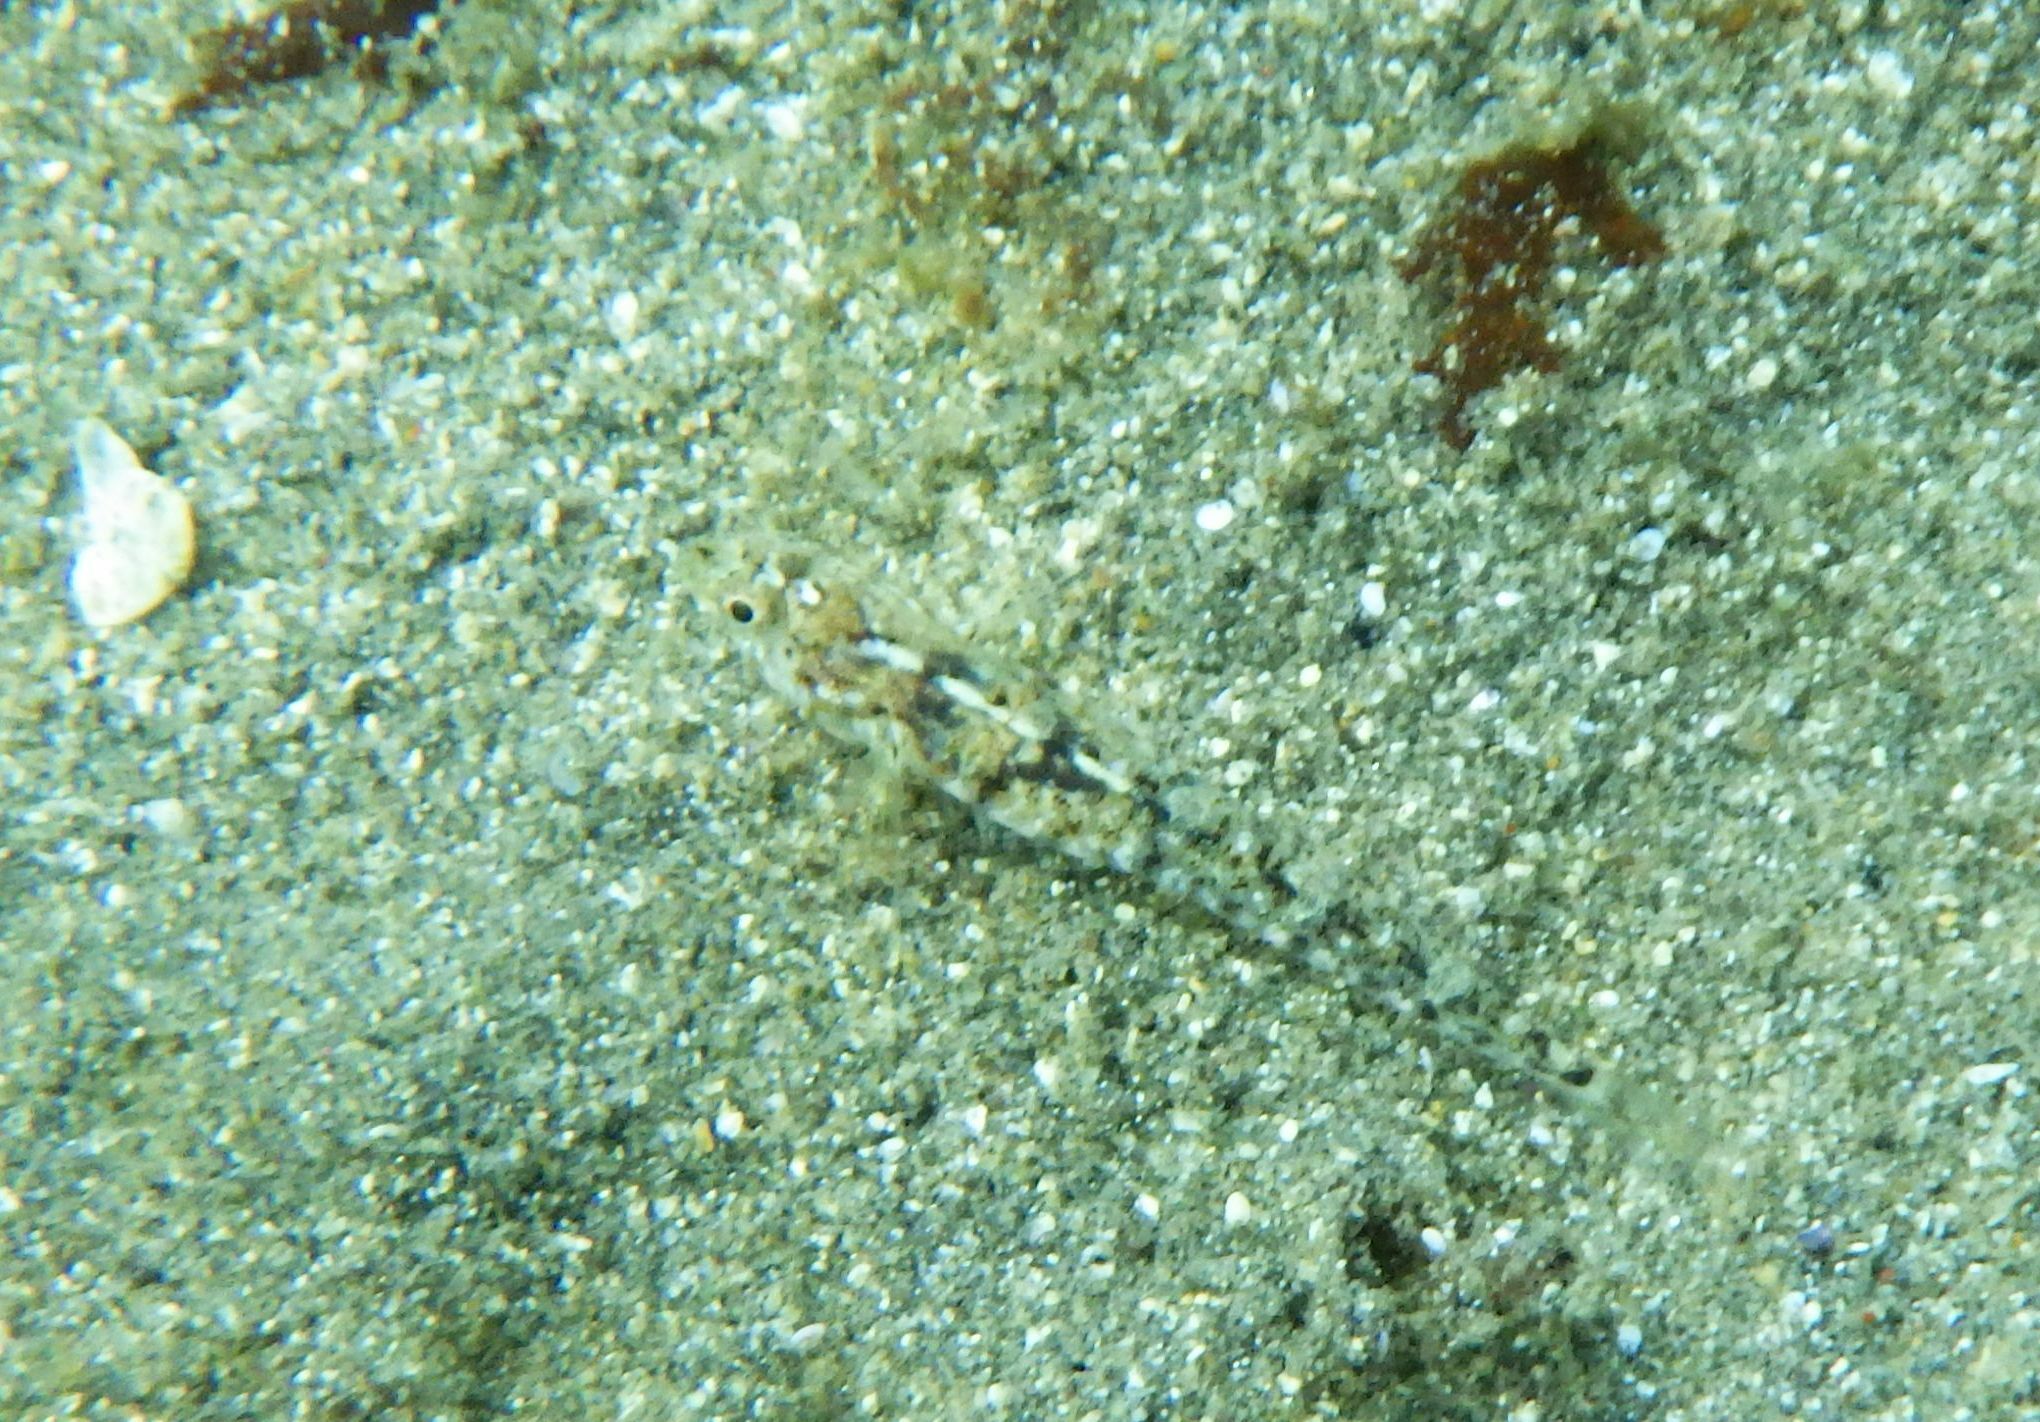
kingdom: Animalia
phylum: Chordata
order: Perciformes
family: Gobiidae
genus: Pomatoschistus
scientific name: Pomatoschistus bathi
